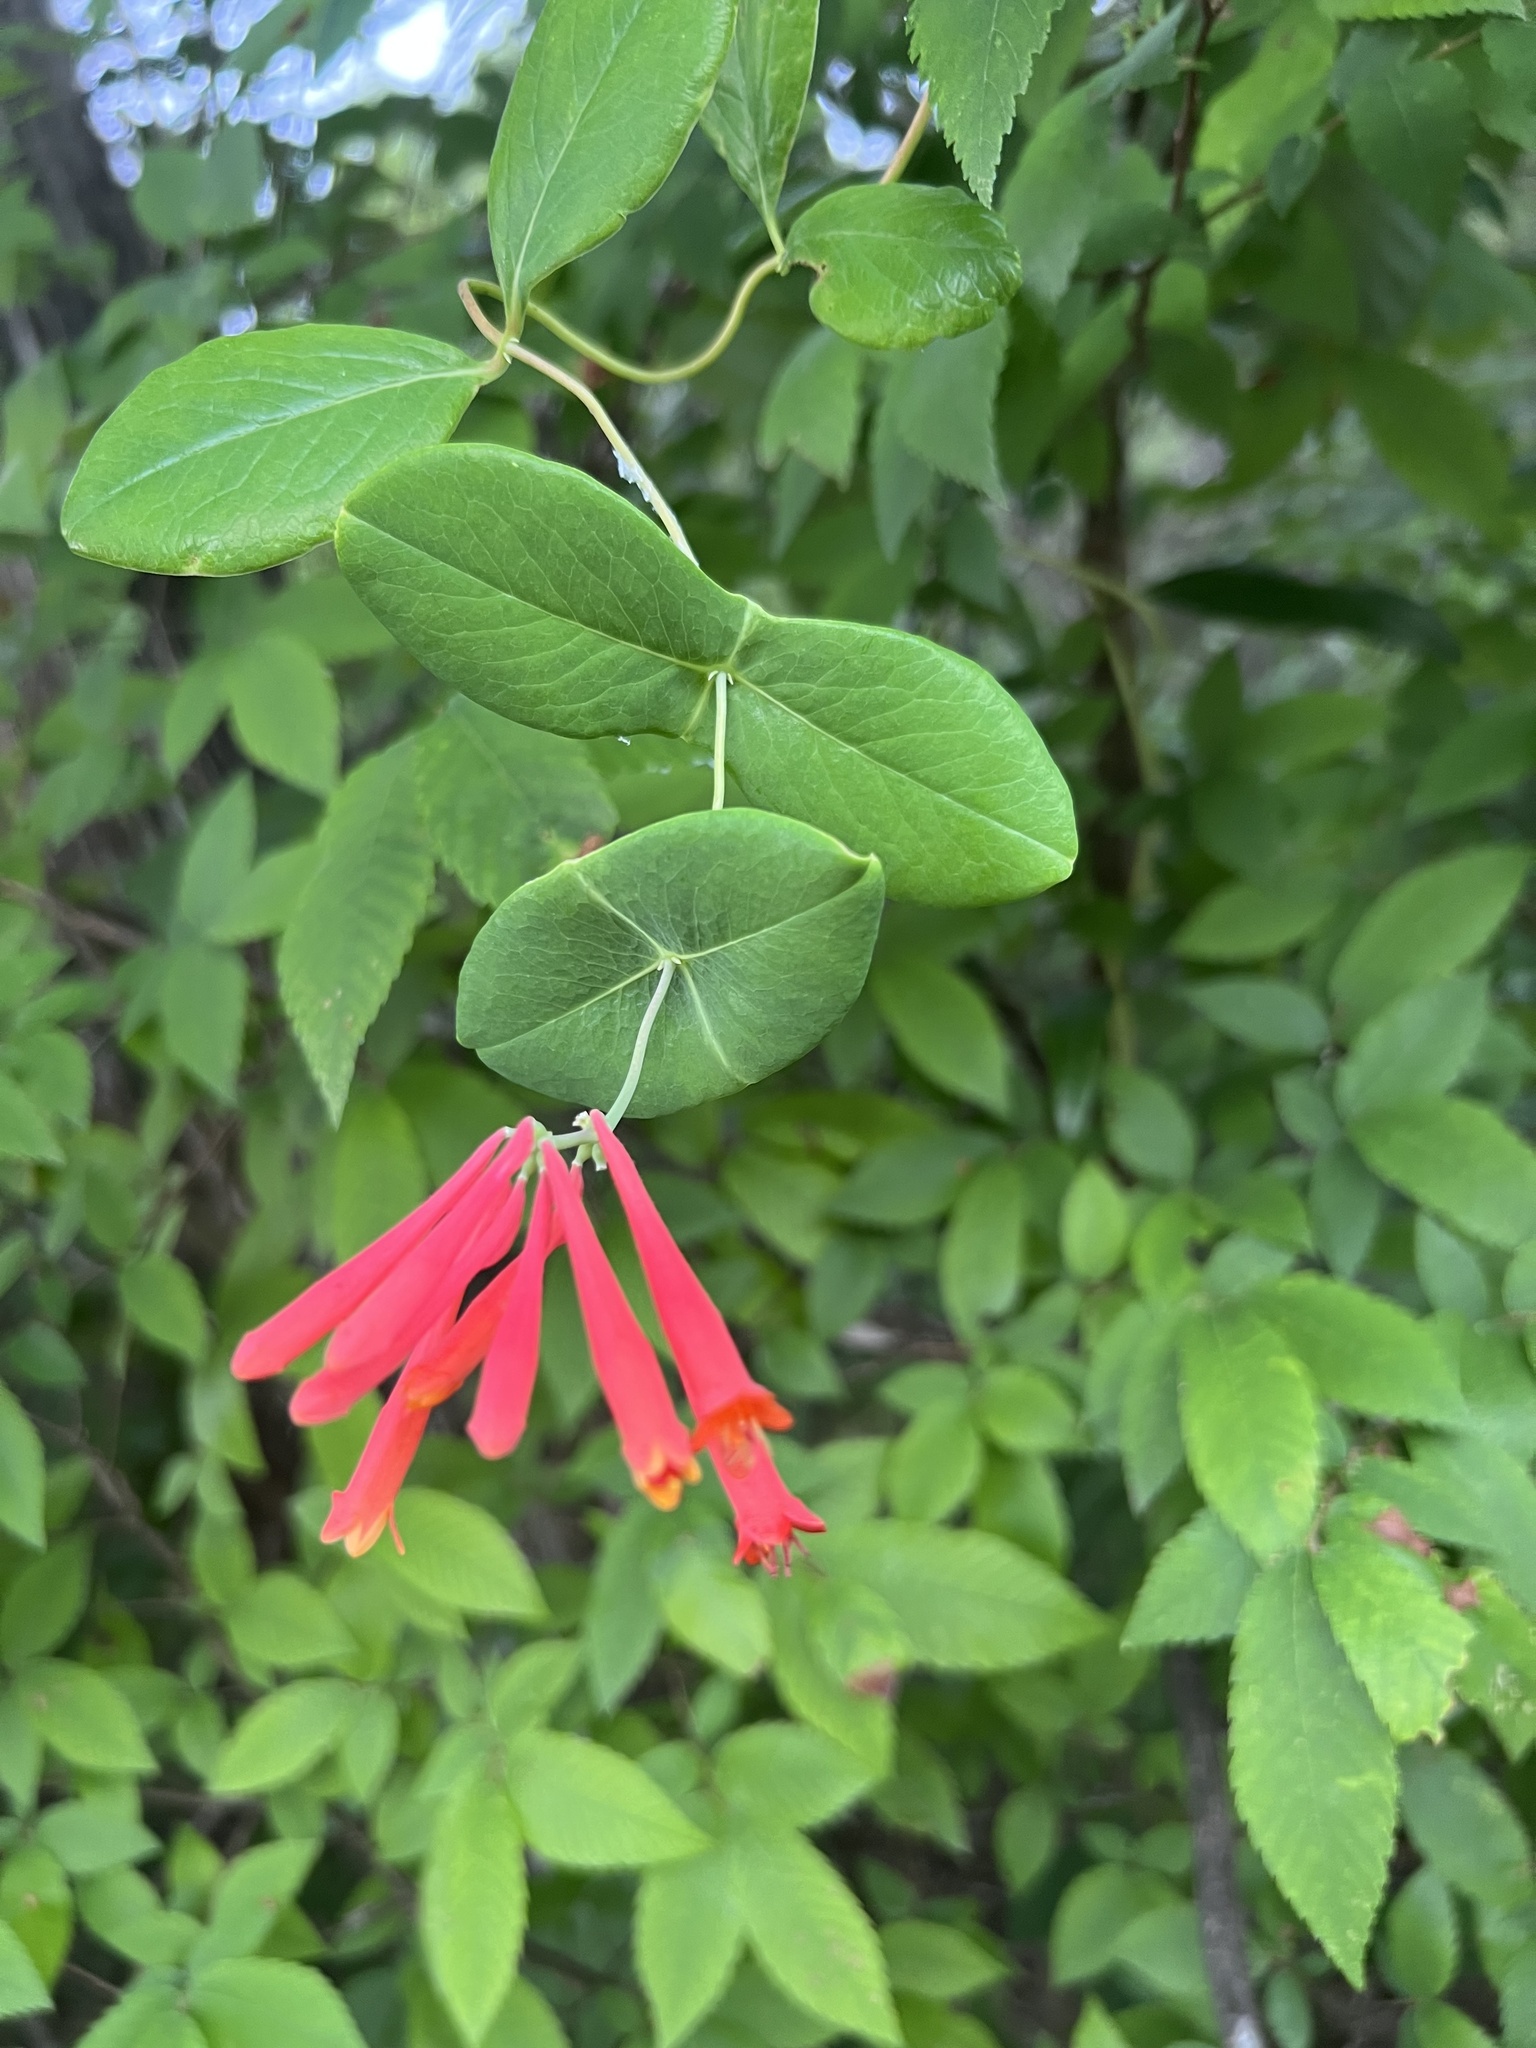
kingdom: Plantae
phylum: Tracheophyta
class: Magnoliopsida
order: Dipsacales
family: Caprifoliaceae
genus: Lonicera
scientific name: Lonicera sempervirens
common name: Coral honeysuckle
